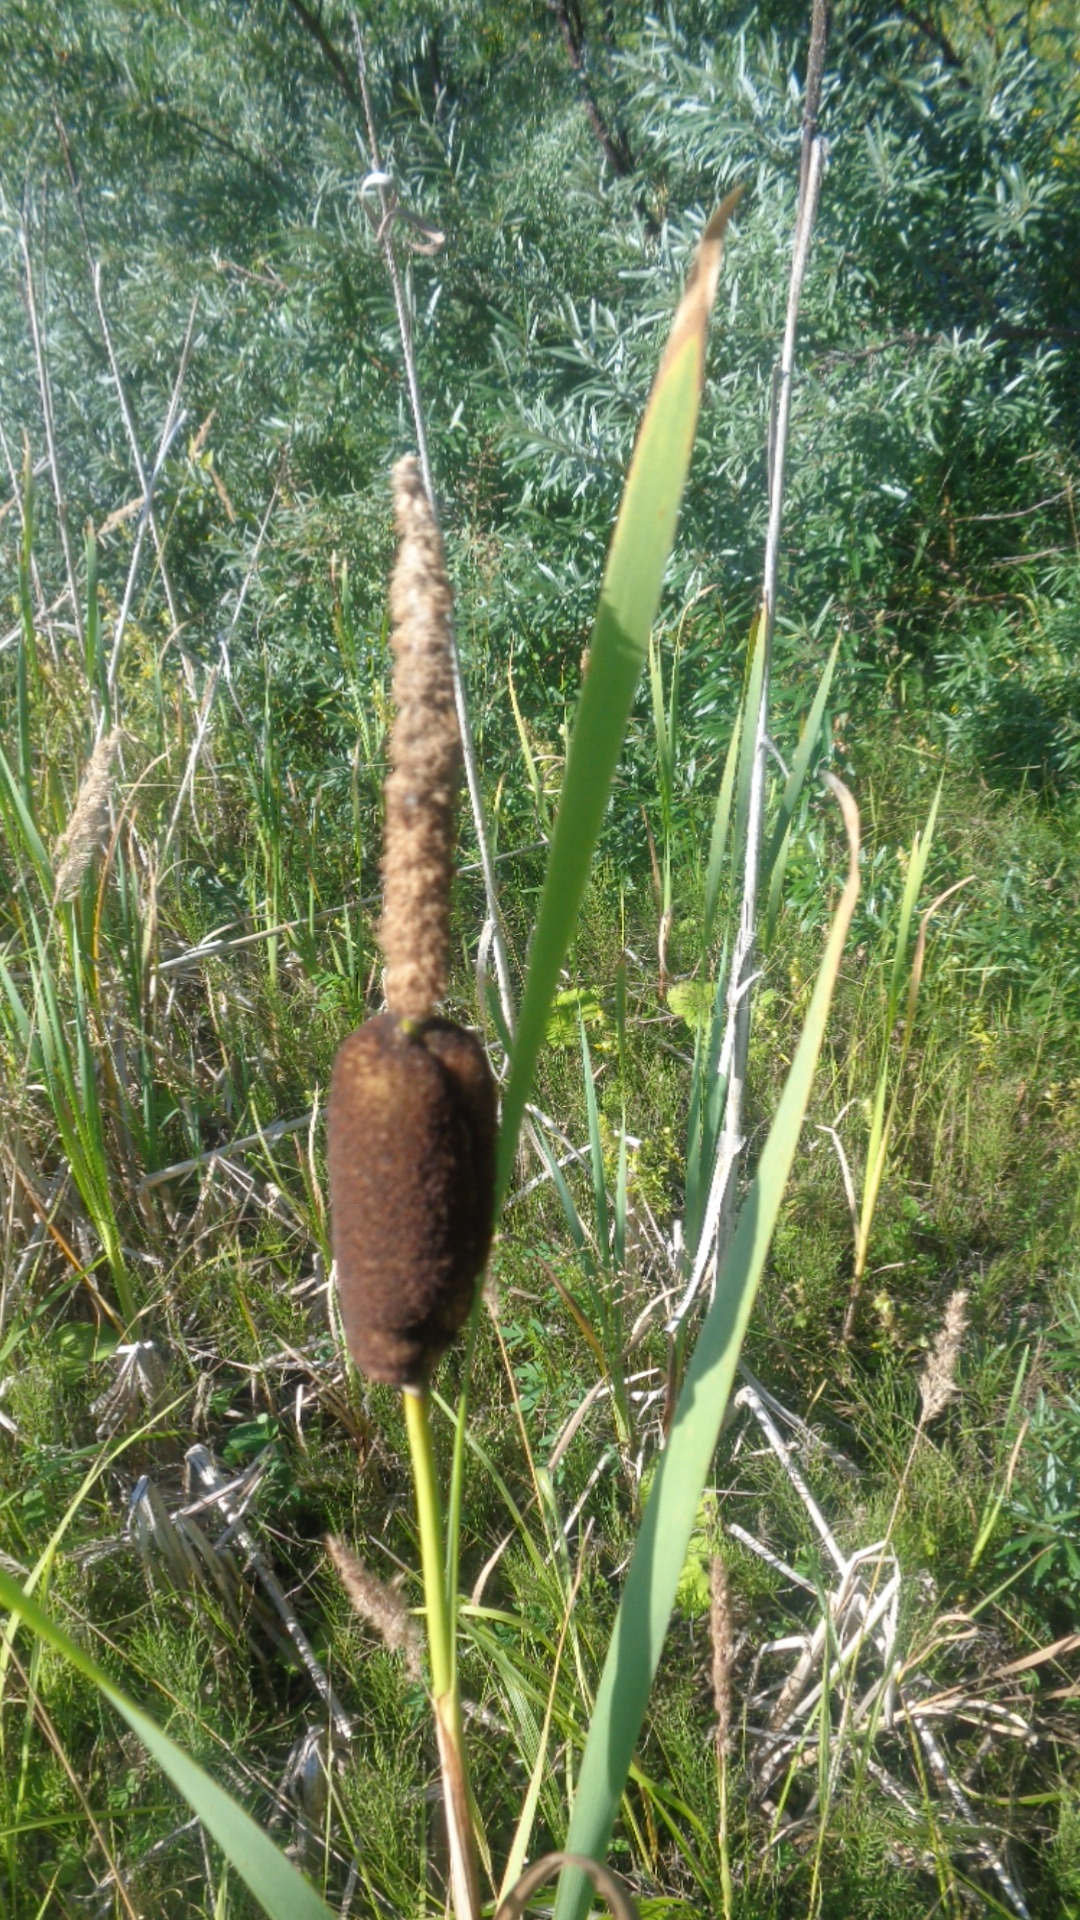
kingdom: Plantae
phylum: Tracheophyta
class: Liliopsida
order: Poales
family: Typhaceae
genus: Typha
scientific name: Typha latifolia
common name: Broadleaf cattail
